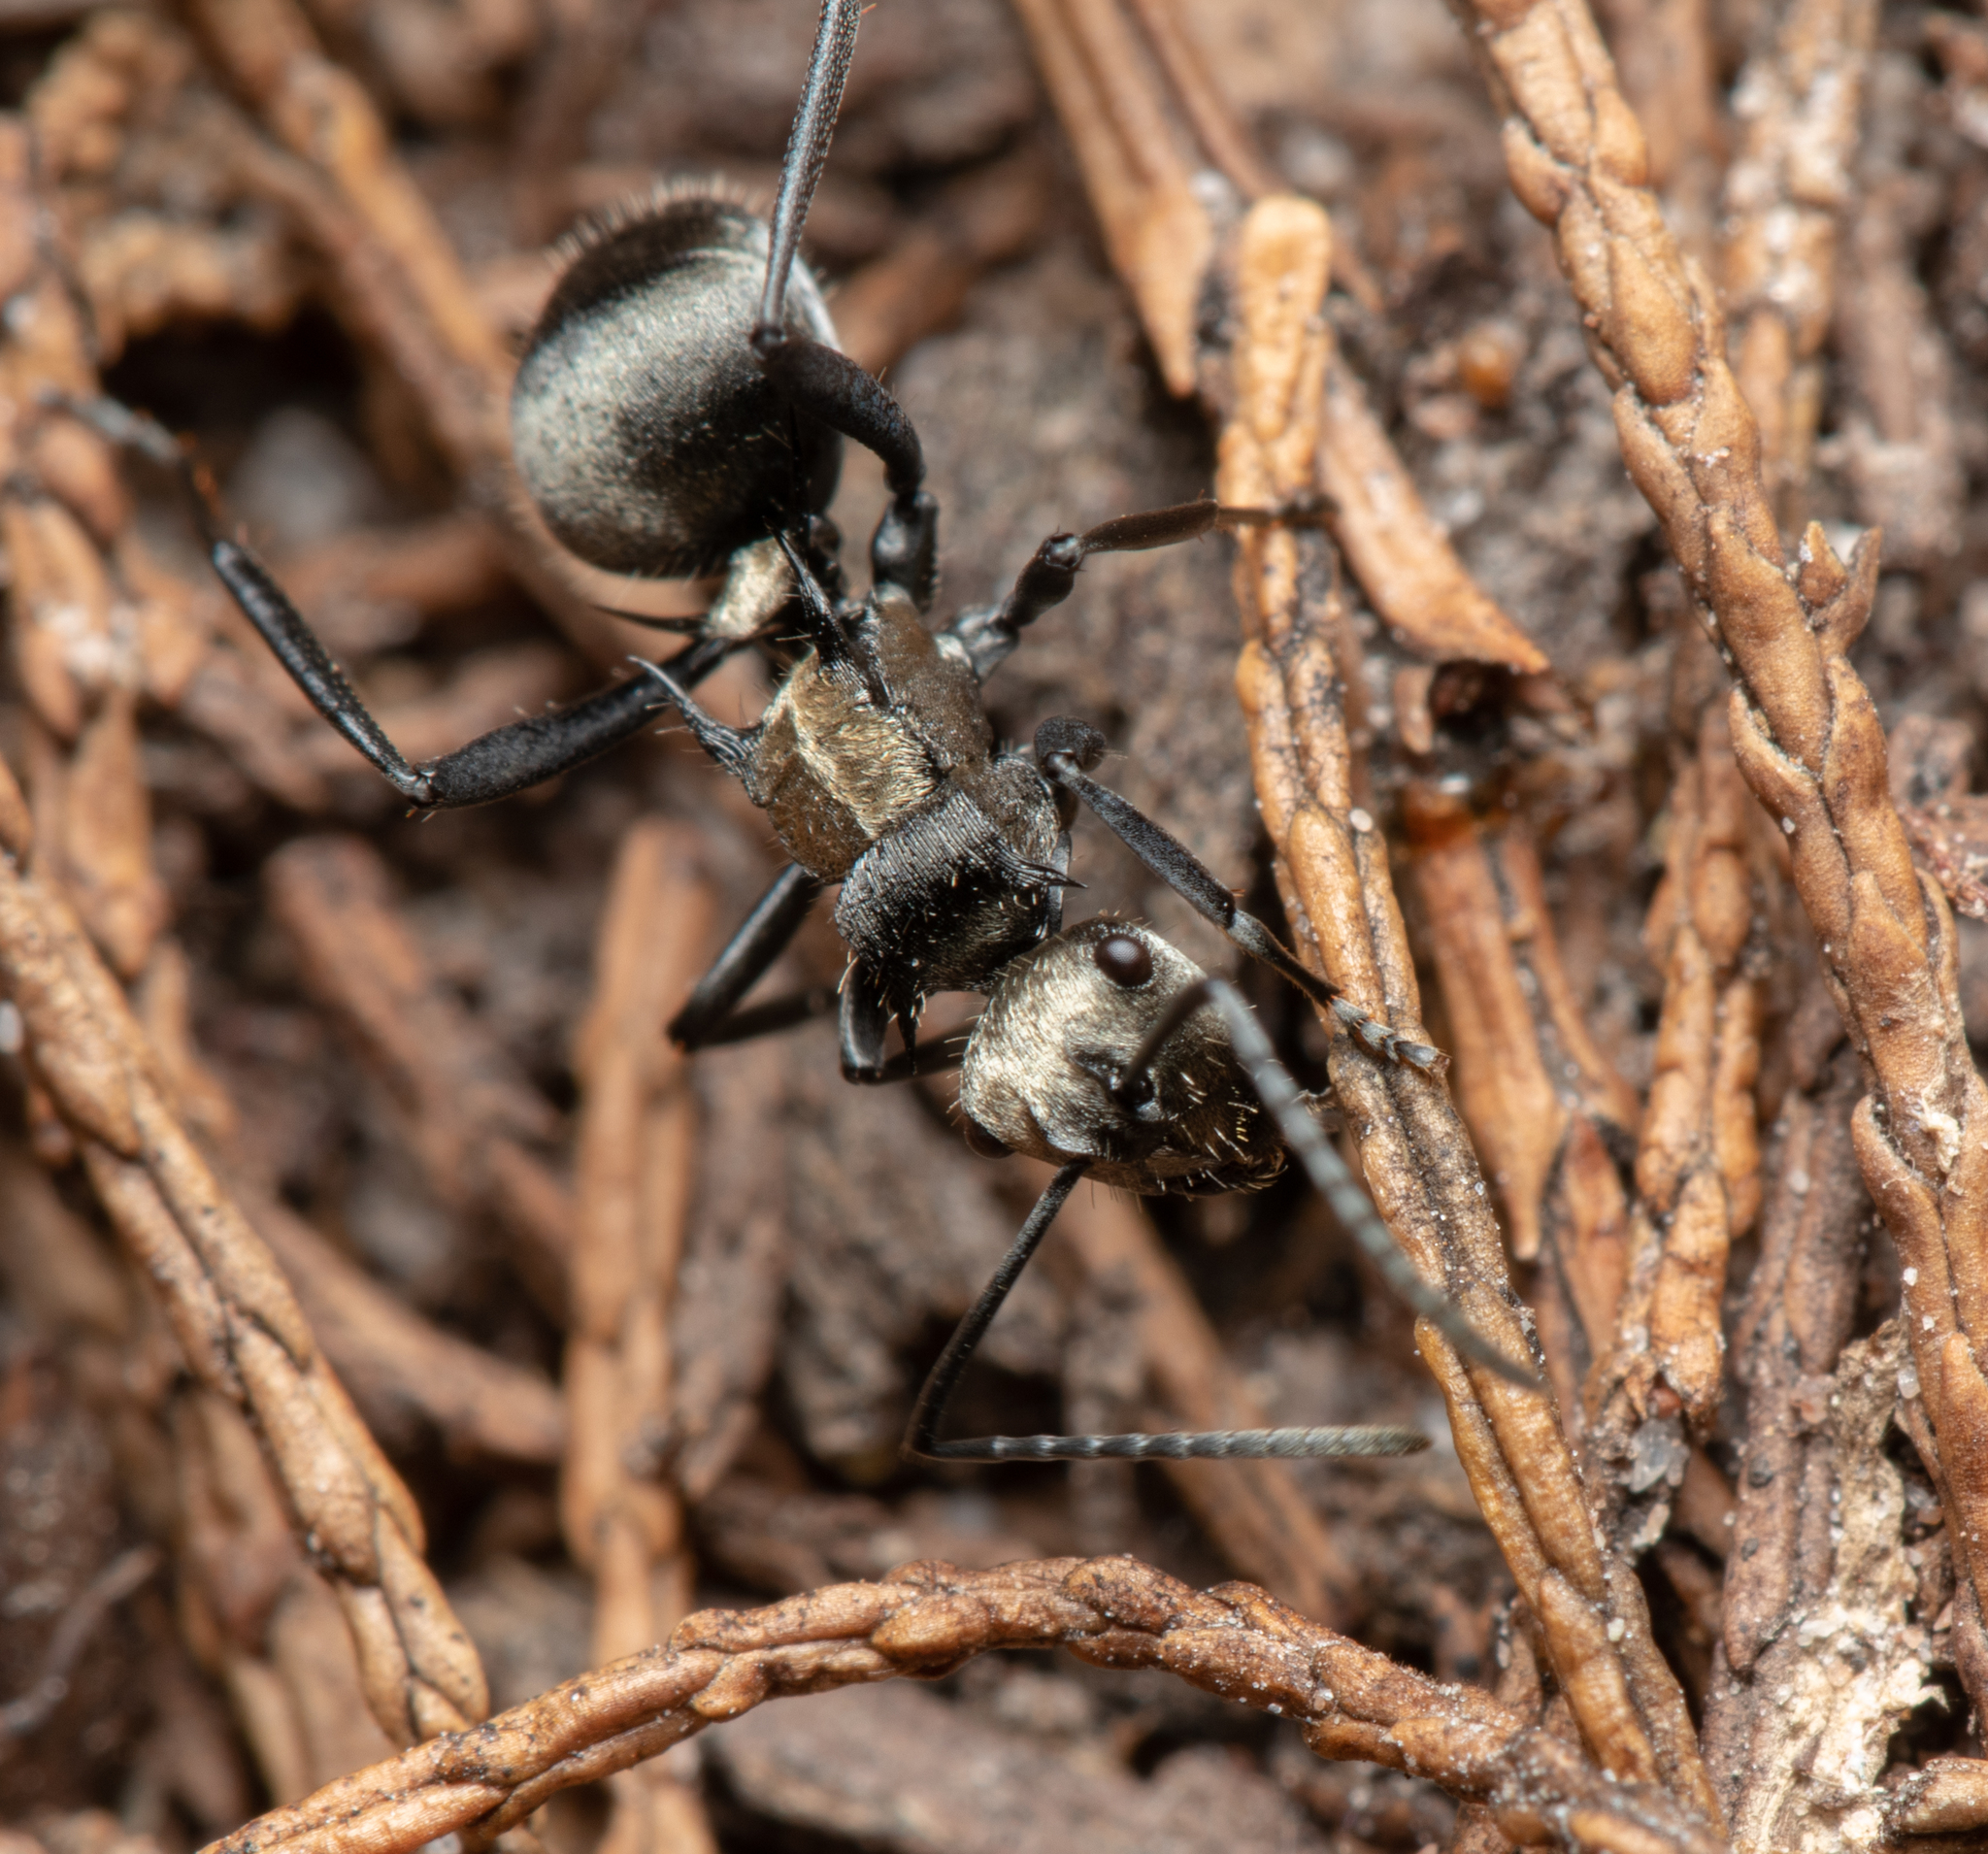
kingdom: Animalia
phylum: Arthropoda
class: Insecta
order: Hymenoptera
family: Formicidae
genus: Polyrhachis
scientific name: Polyrhachis daemeli
